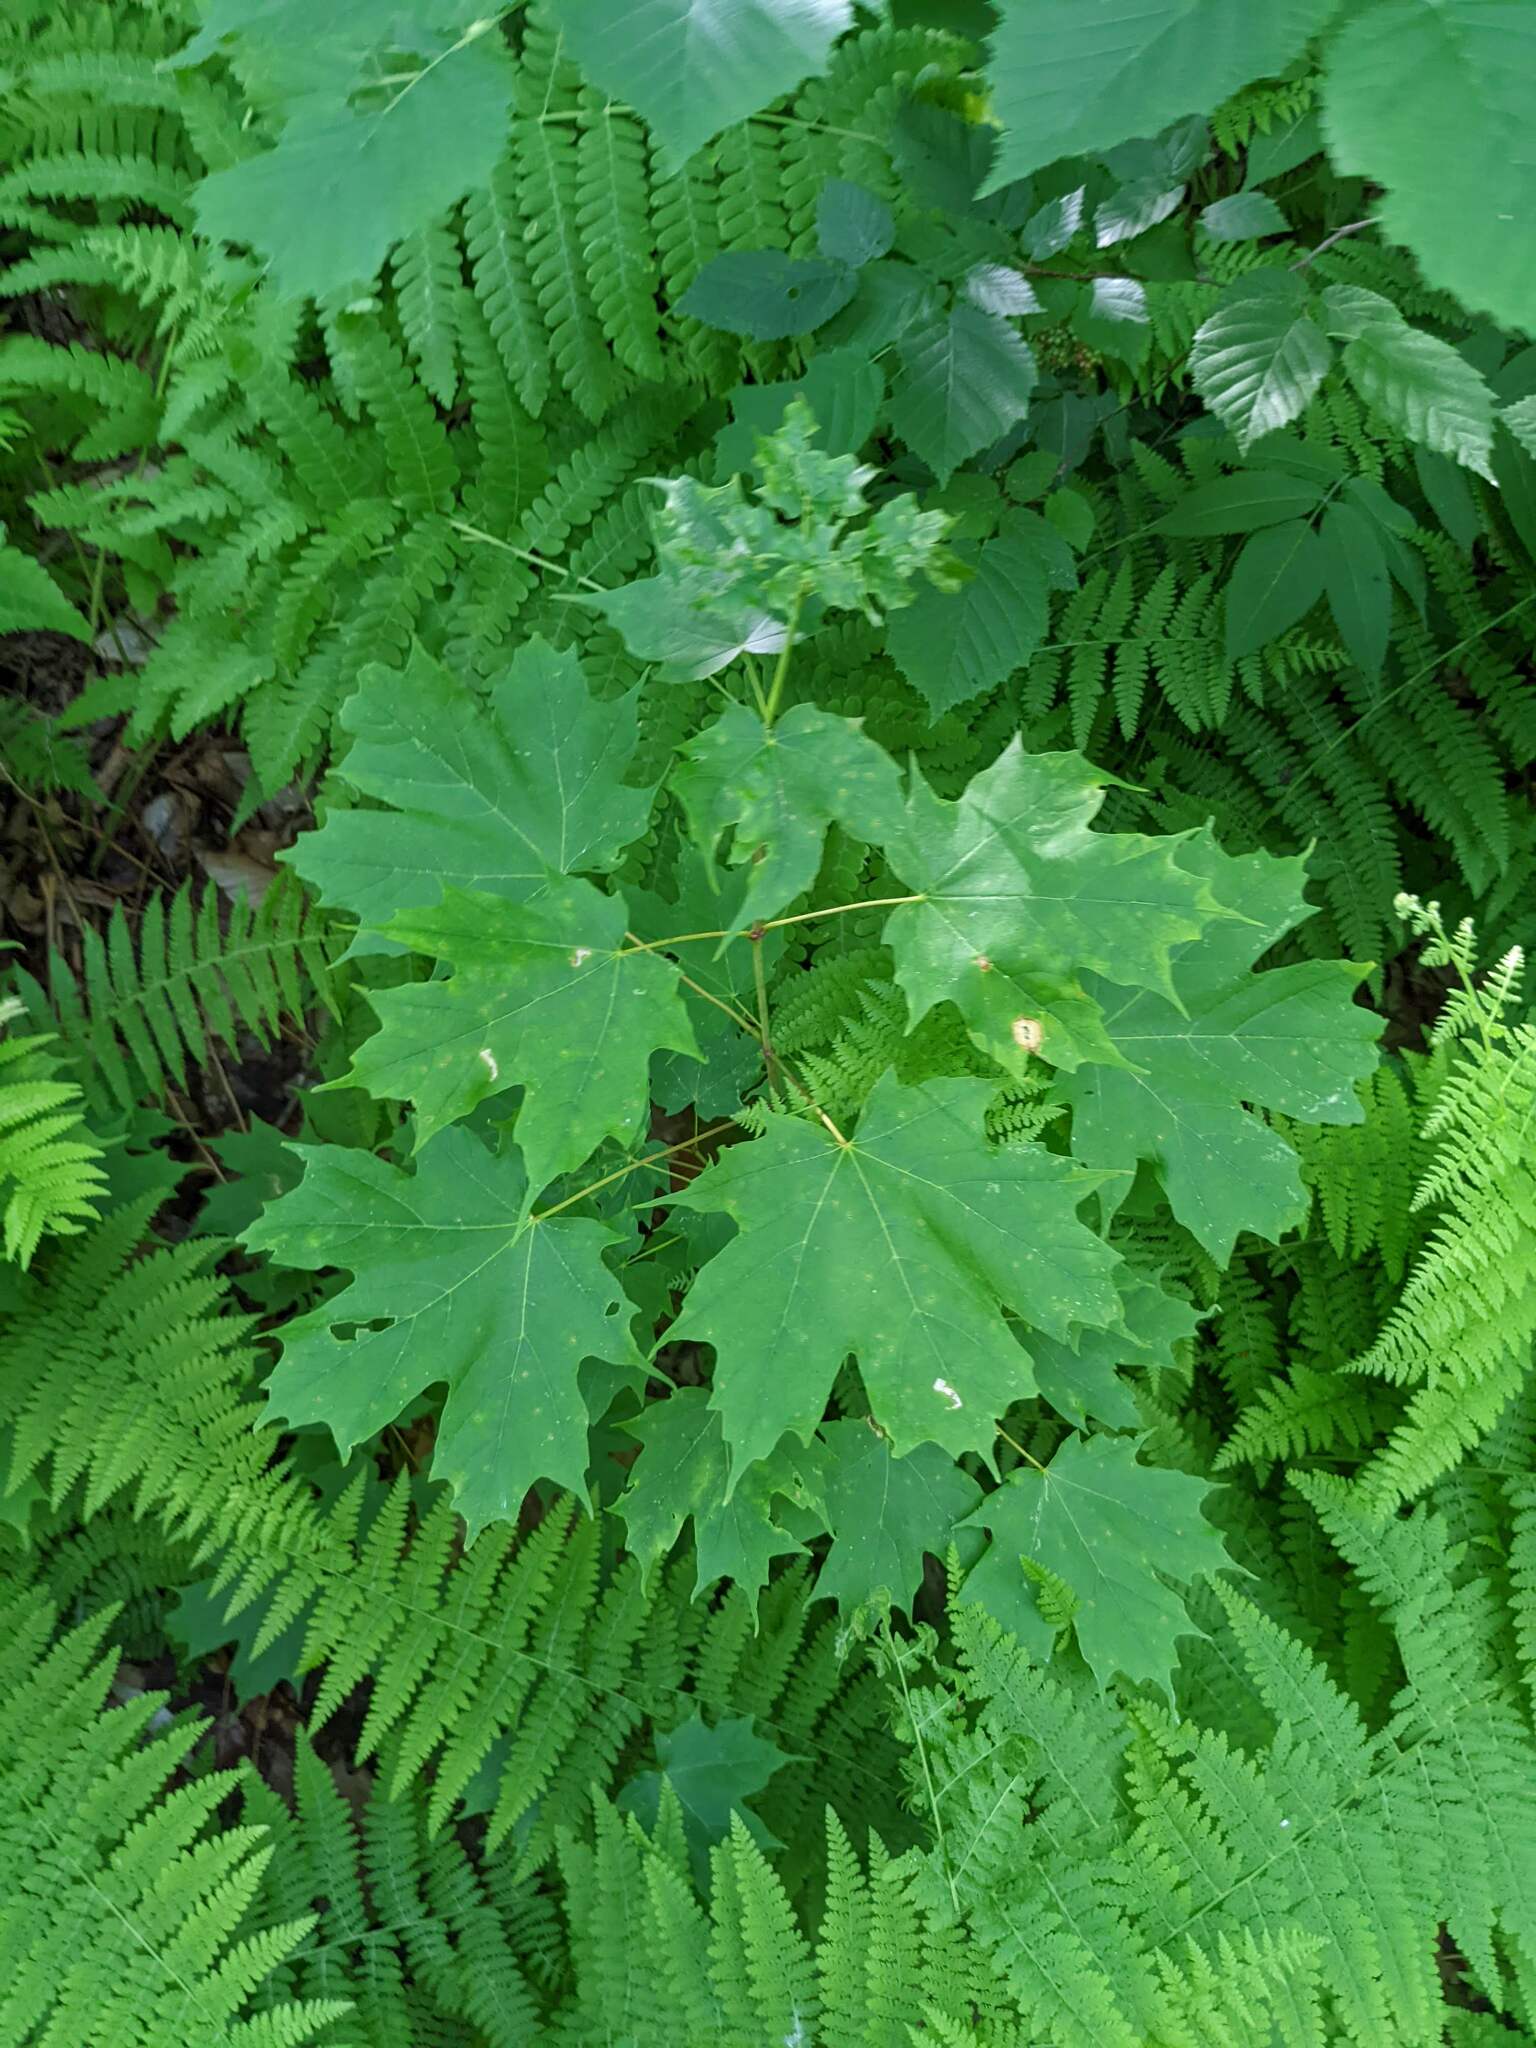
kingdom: Plantae
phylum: Tracheophyta
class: Magnoliopsida
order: Sapindales
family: Sapindaceae
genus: Acer
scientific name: Acer saccharum
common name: Sugar maple
